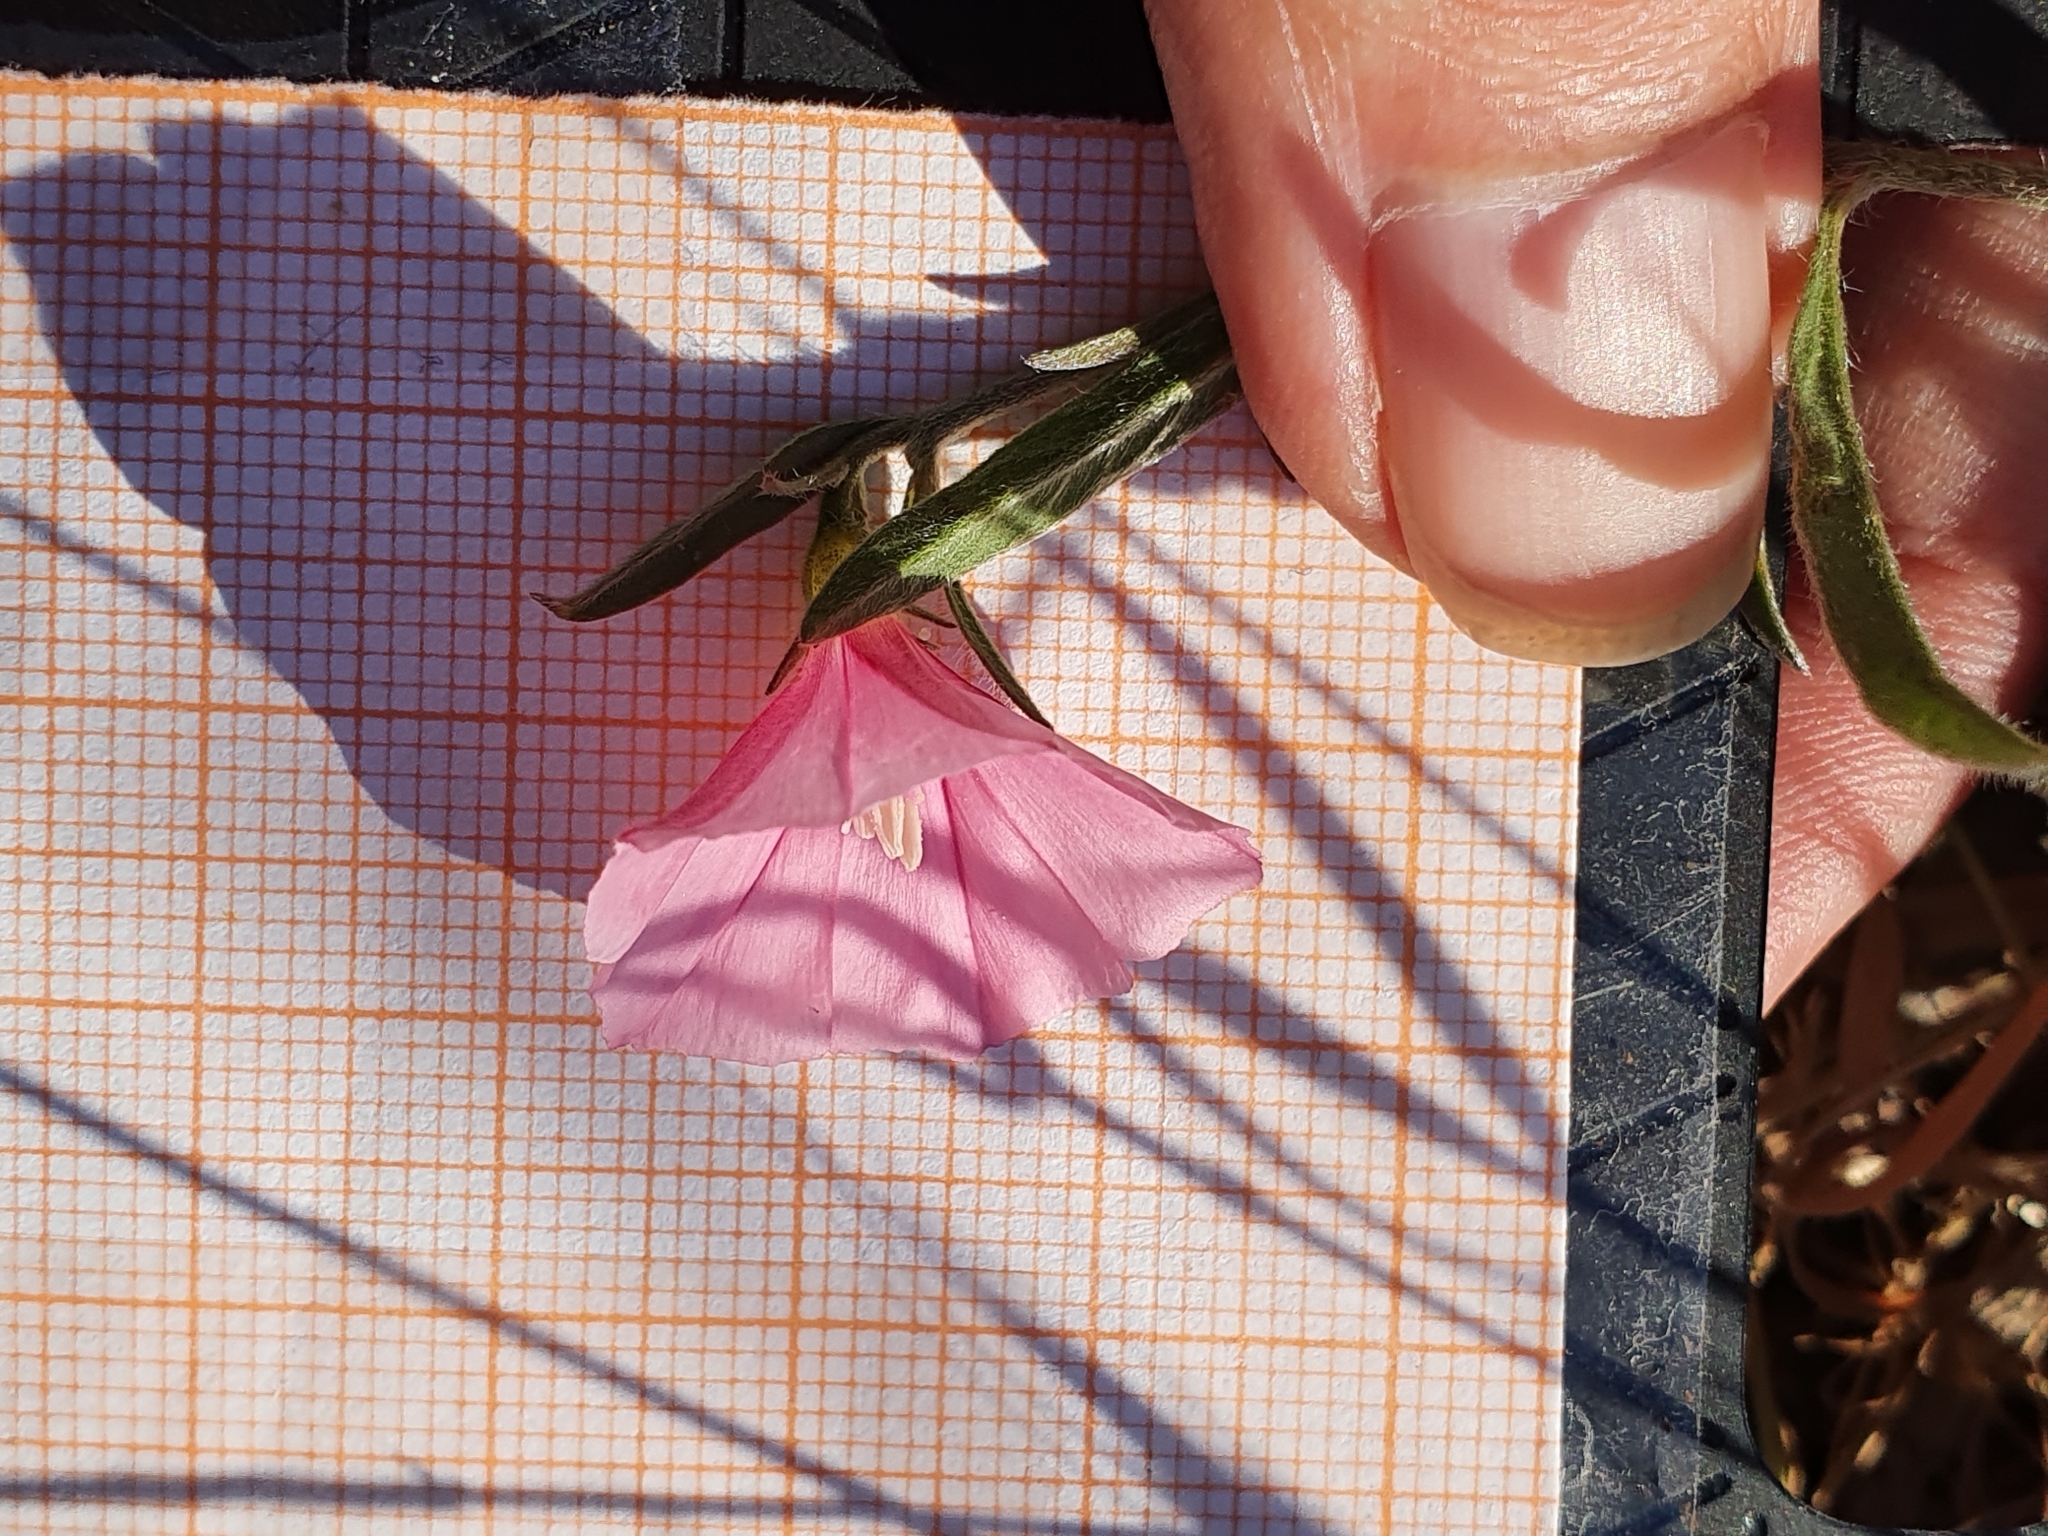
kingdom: Plantae
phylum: Tracheophyta
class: Magnoliopsida
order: Solanales
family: Convolvulaceae
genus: Convolvulus
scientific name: Convolvulus cantabrica
